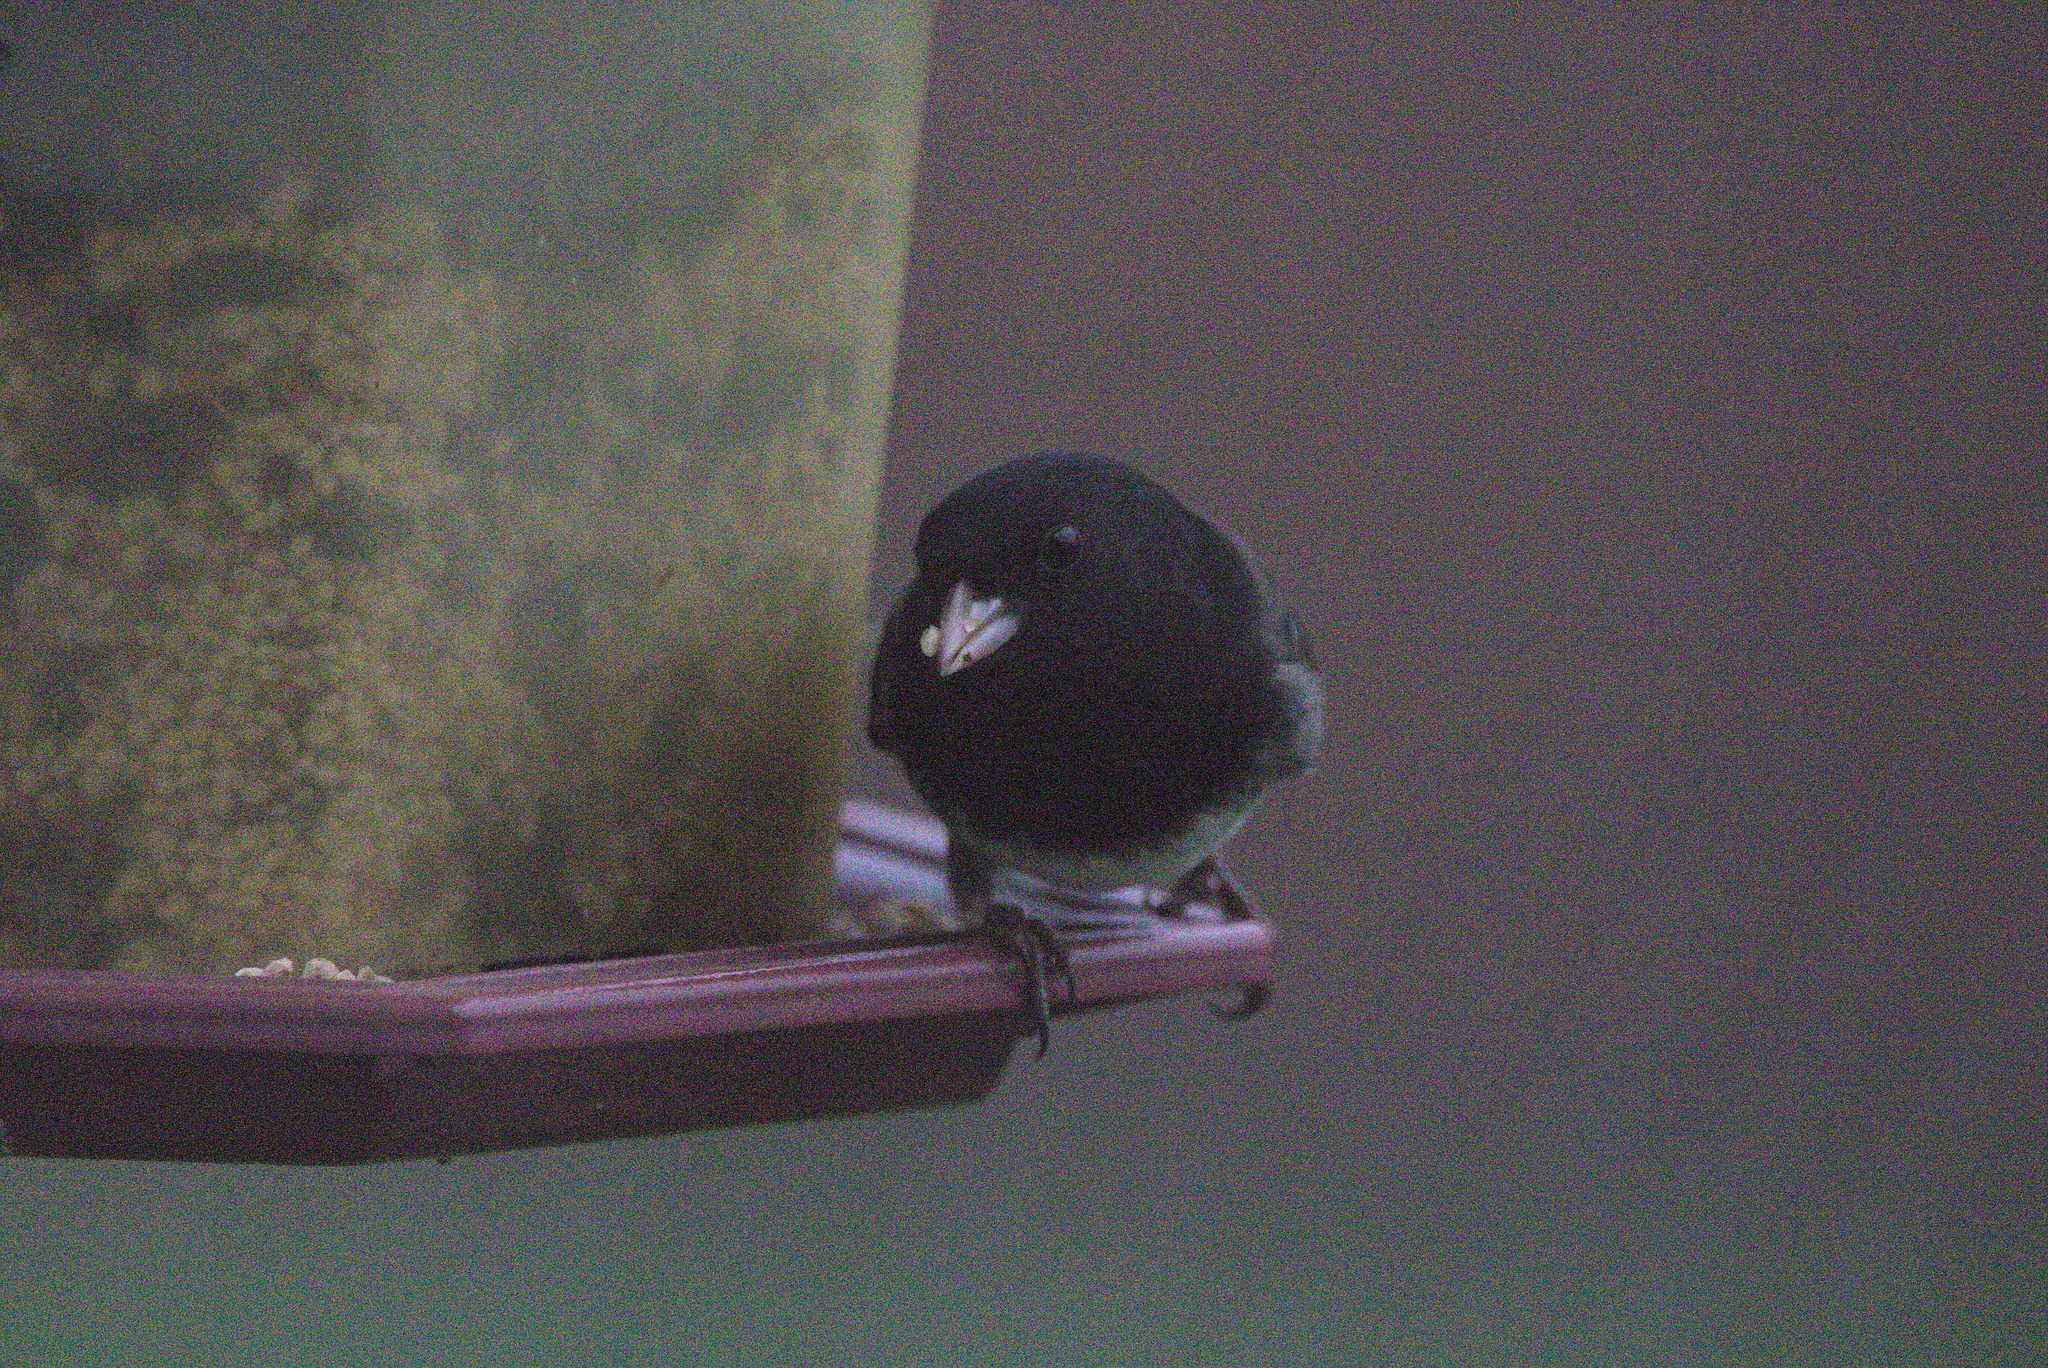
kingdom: Animalia
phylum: Chordata
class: Aves
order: Passeriformes
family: Passerellidae
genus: Junco
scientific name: Junco hyemalis
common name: Dark-eyed junco
